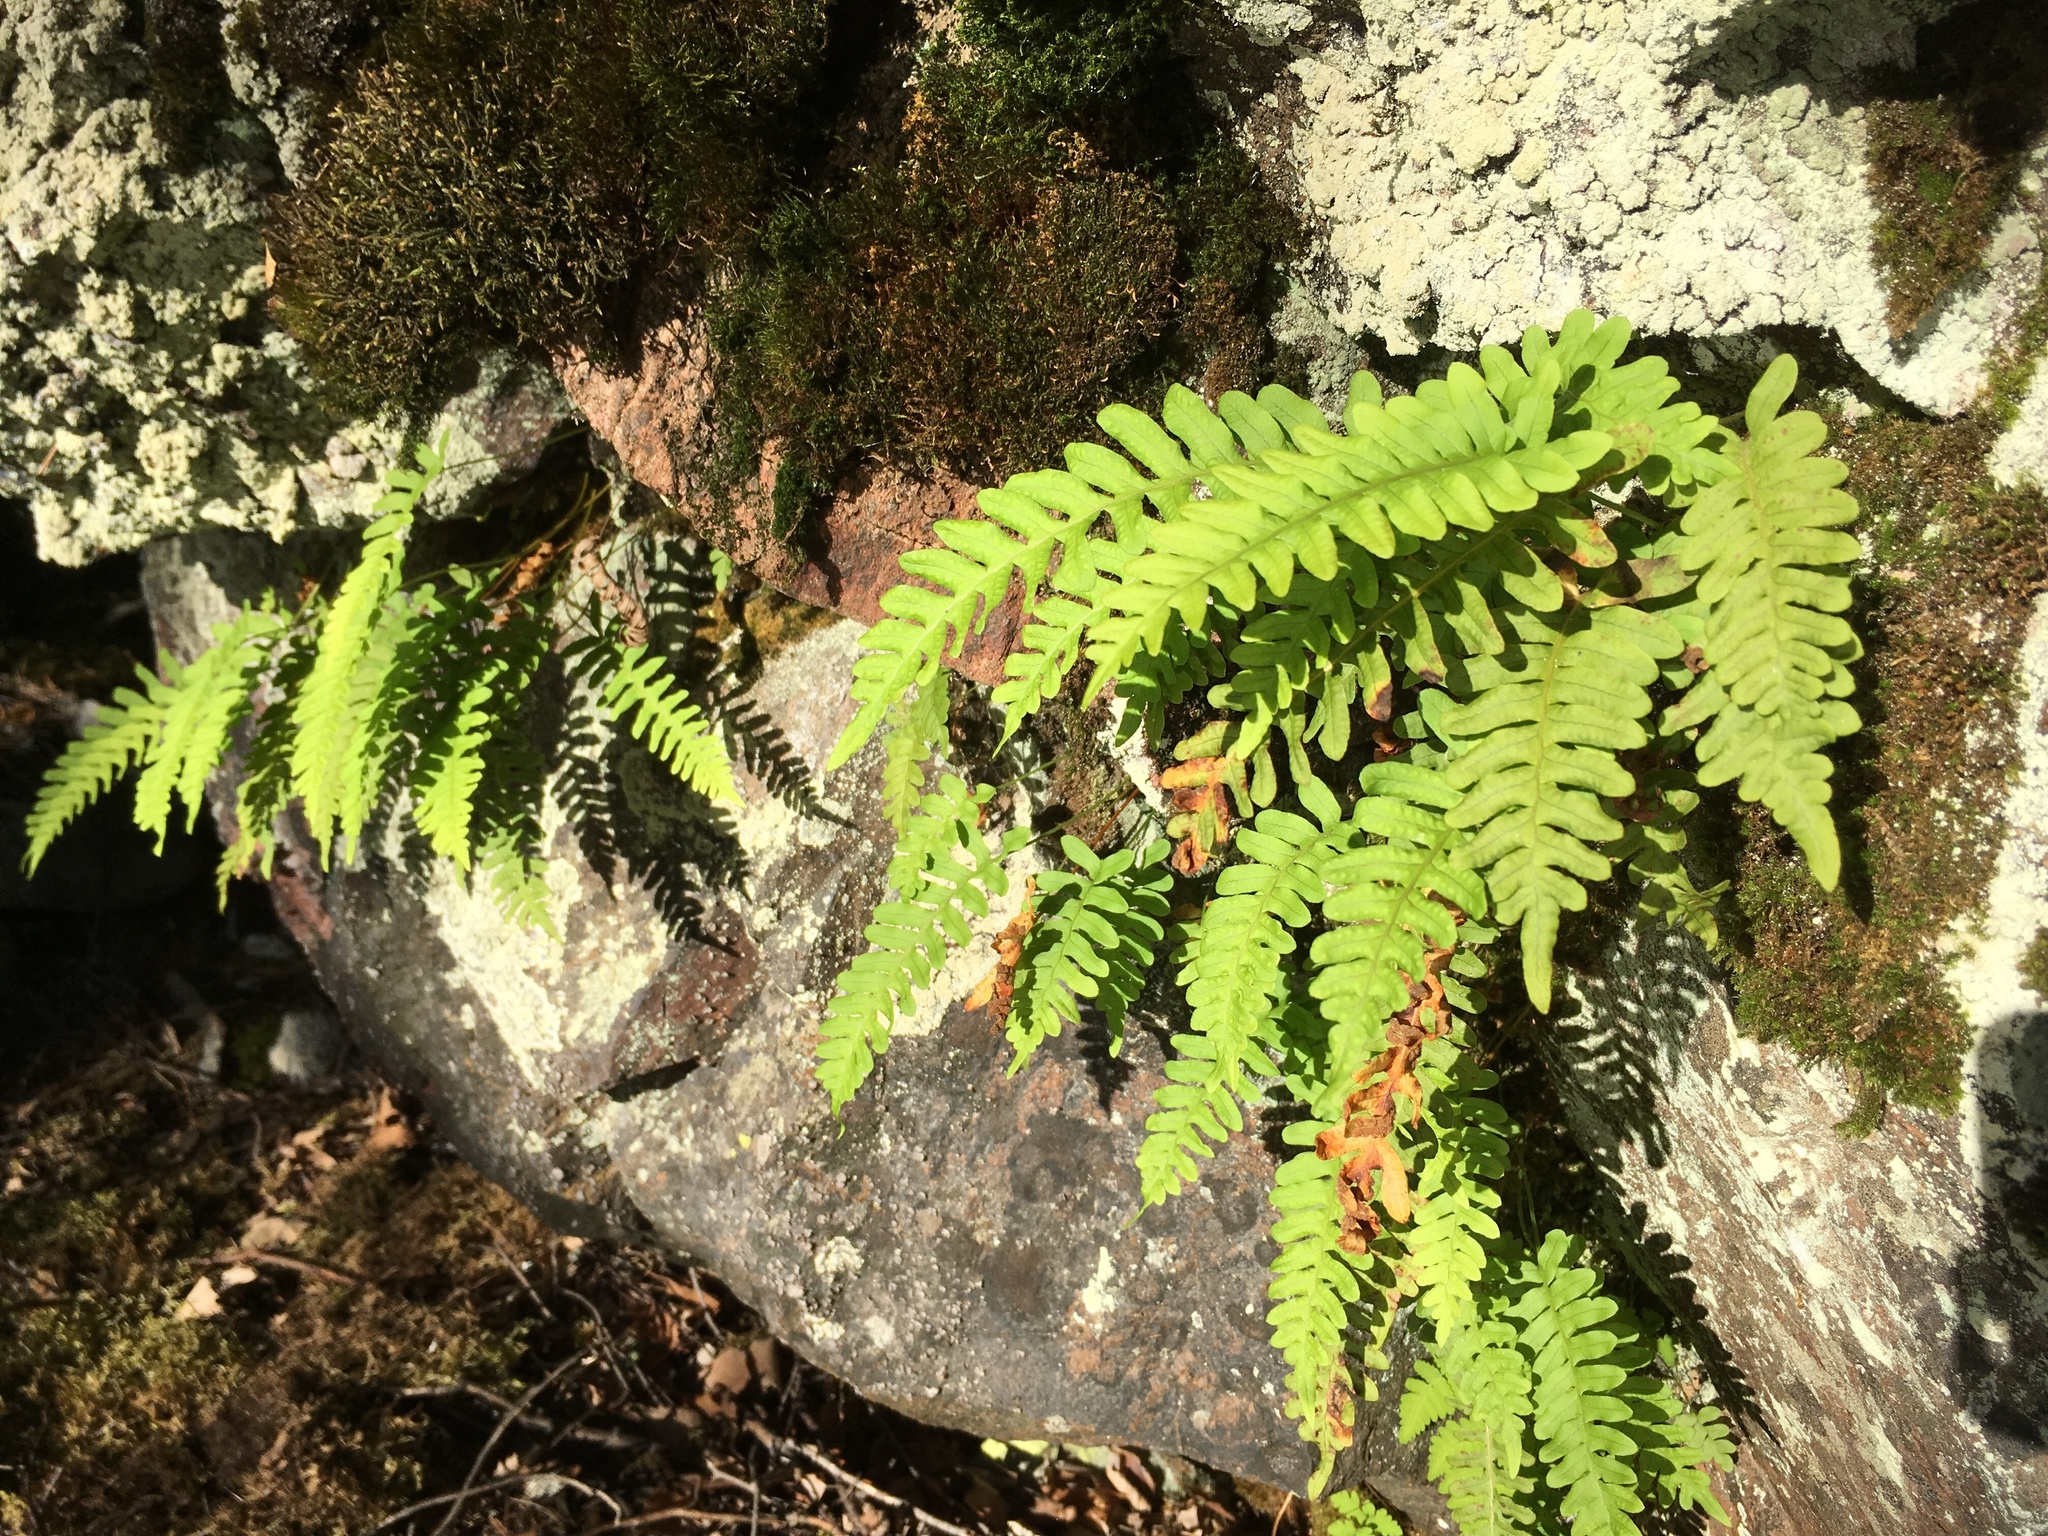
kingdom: Plantae
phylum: Tracheophyta
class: Polypodiopsida
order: Polypodiales
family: Polypodiaceae
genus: Polypodium
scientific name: Polypodium vulgare
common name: Common polypody
